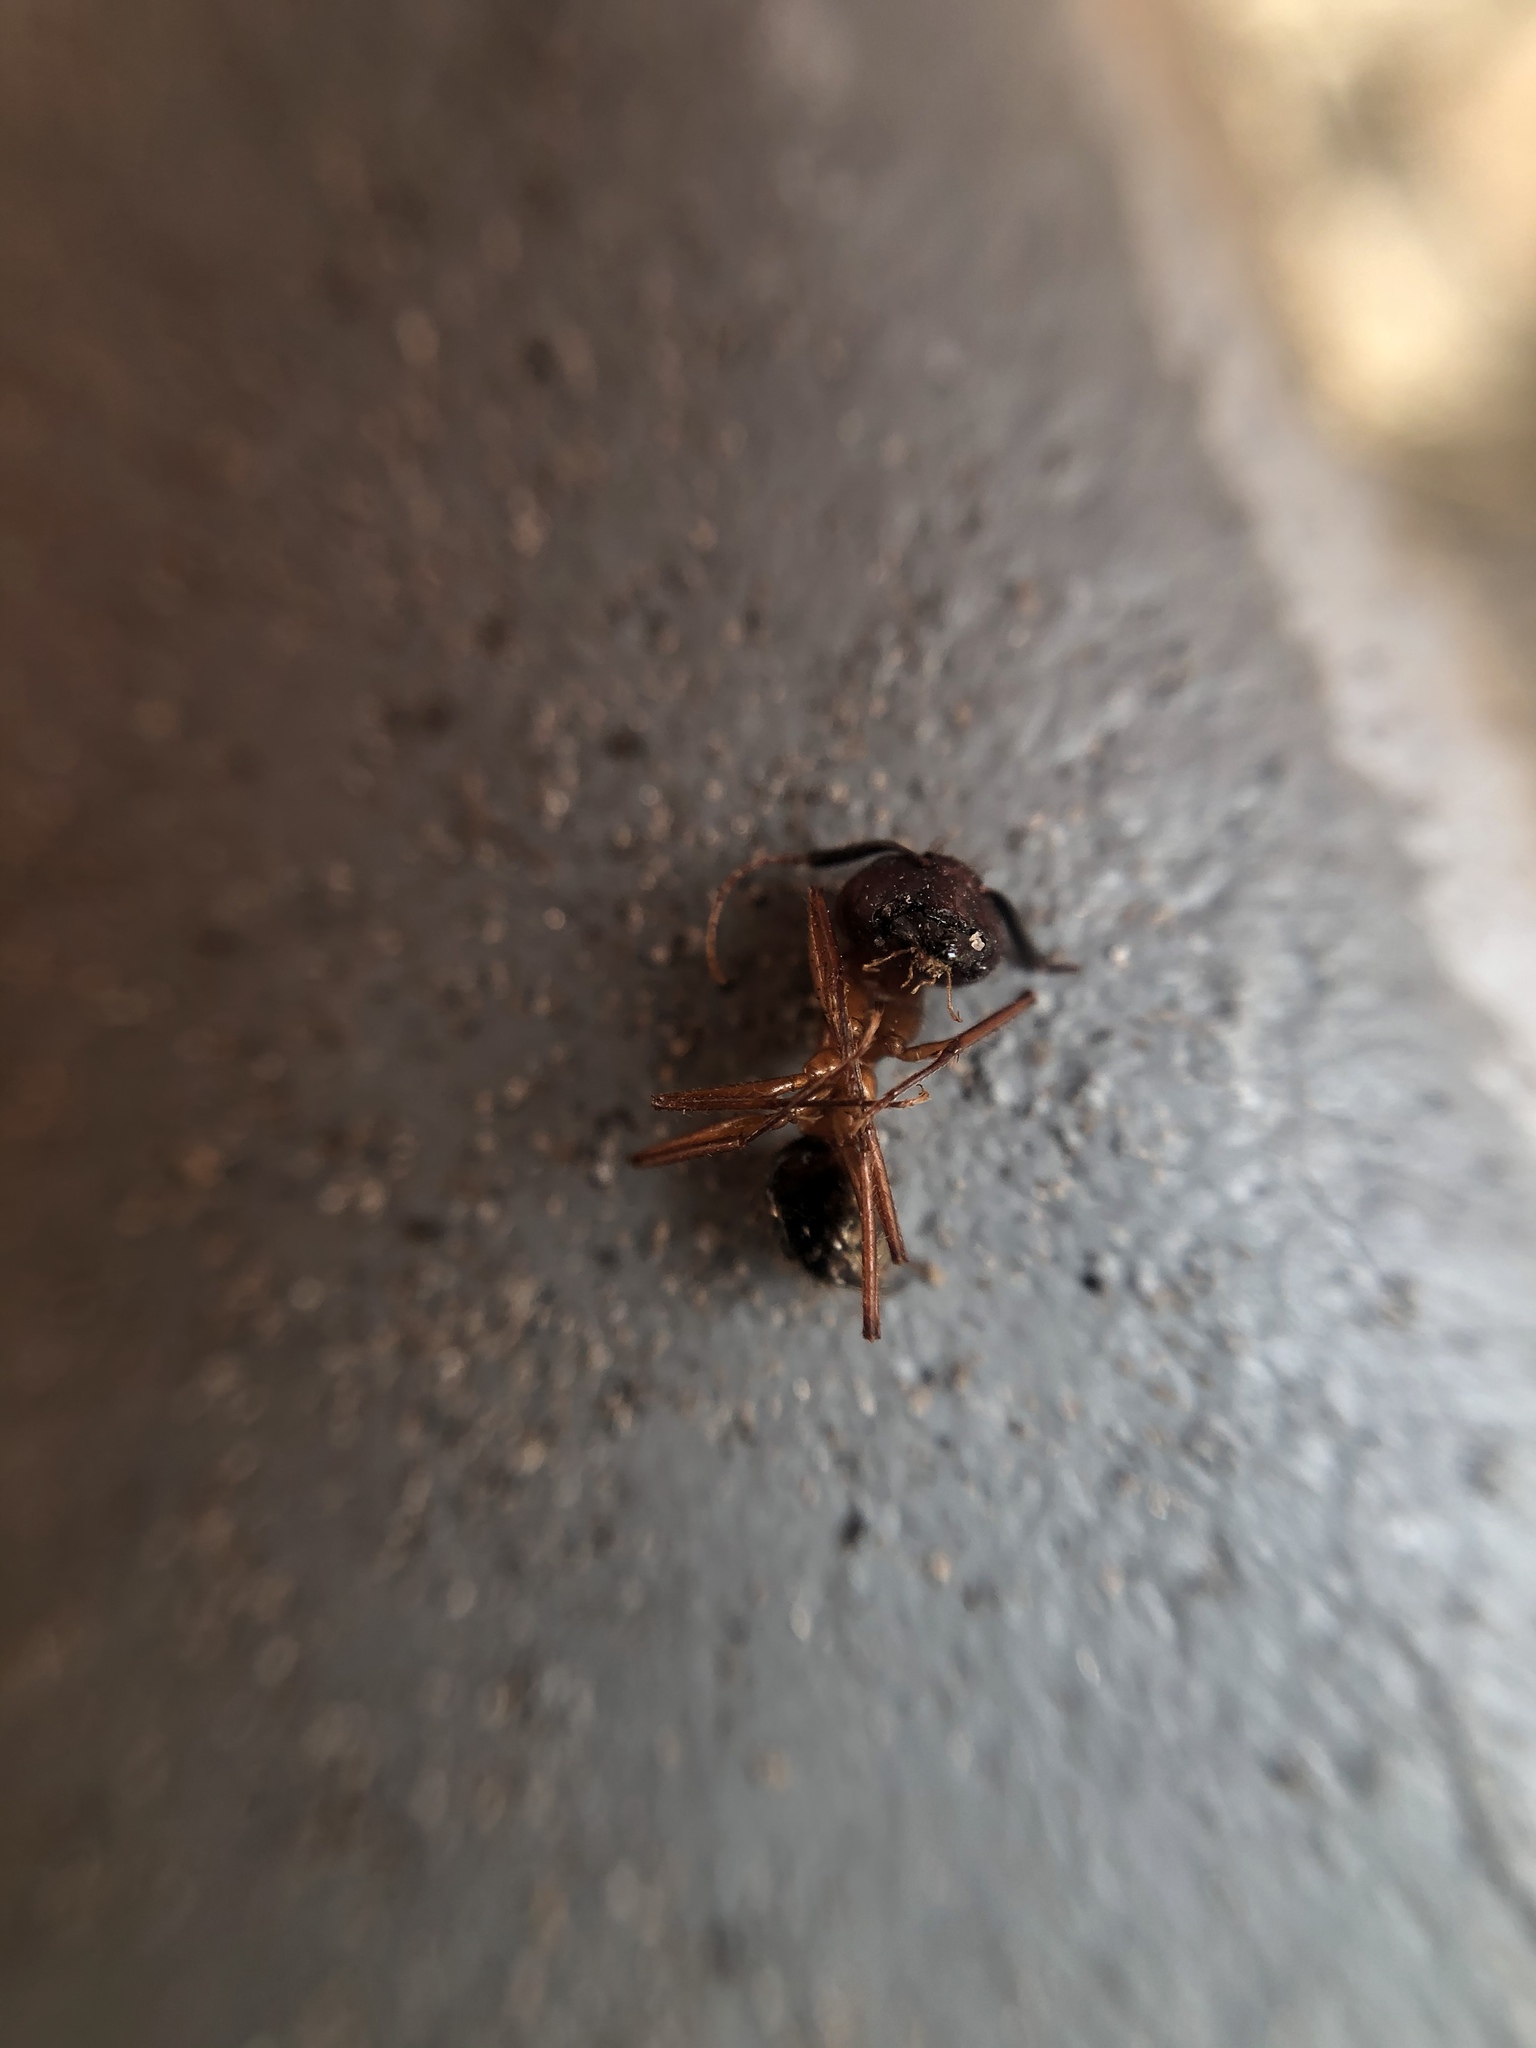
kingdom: Animalia
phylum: Arthropoda
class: Insecta
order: Hymenoptera
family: Formicidae
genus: Camponotus
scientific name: Camponotus floridanus
